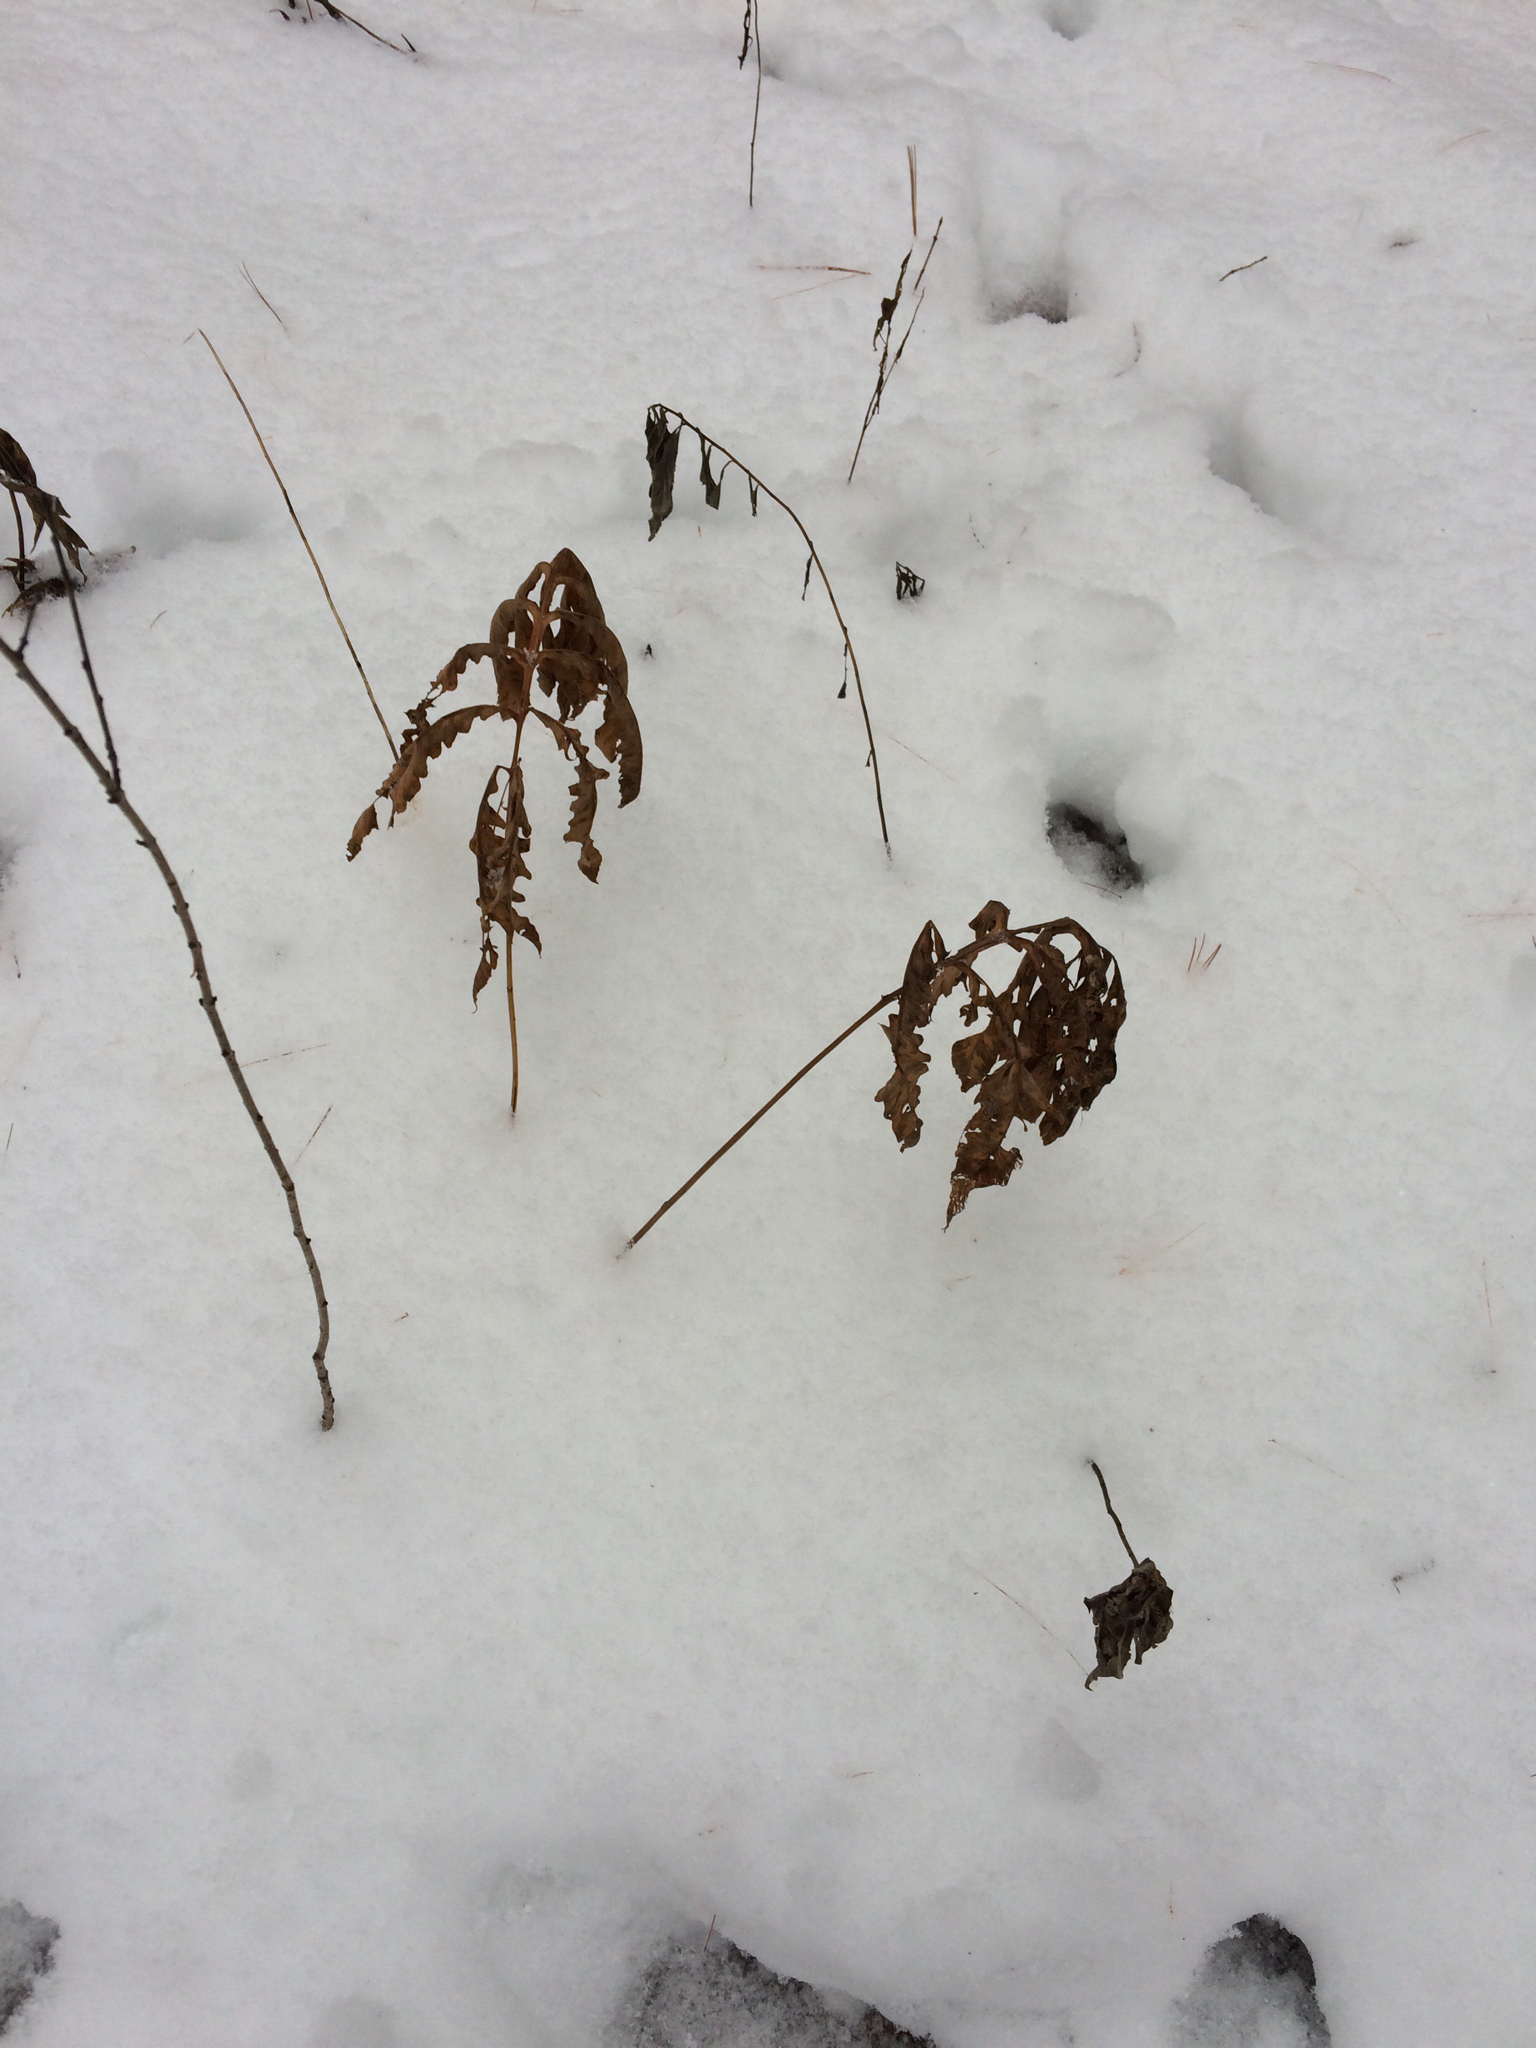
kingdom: Plantae
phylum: Tracheophyta
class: Polypodiopsida
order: Polypodiales
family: Onocleaceae
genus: Onoclea
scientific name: Onoclea sensibilis
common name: Sensitive fern
